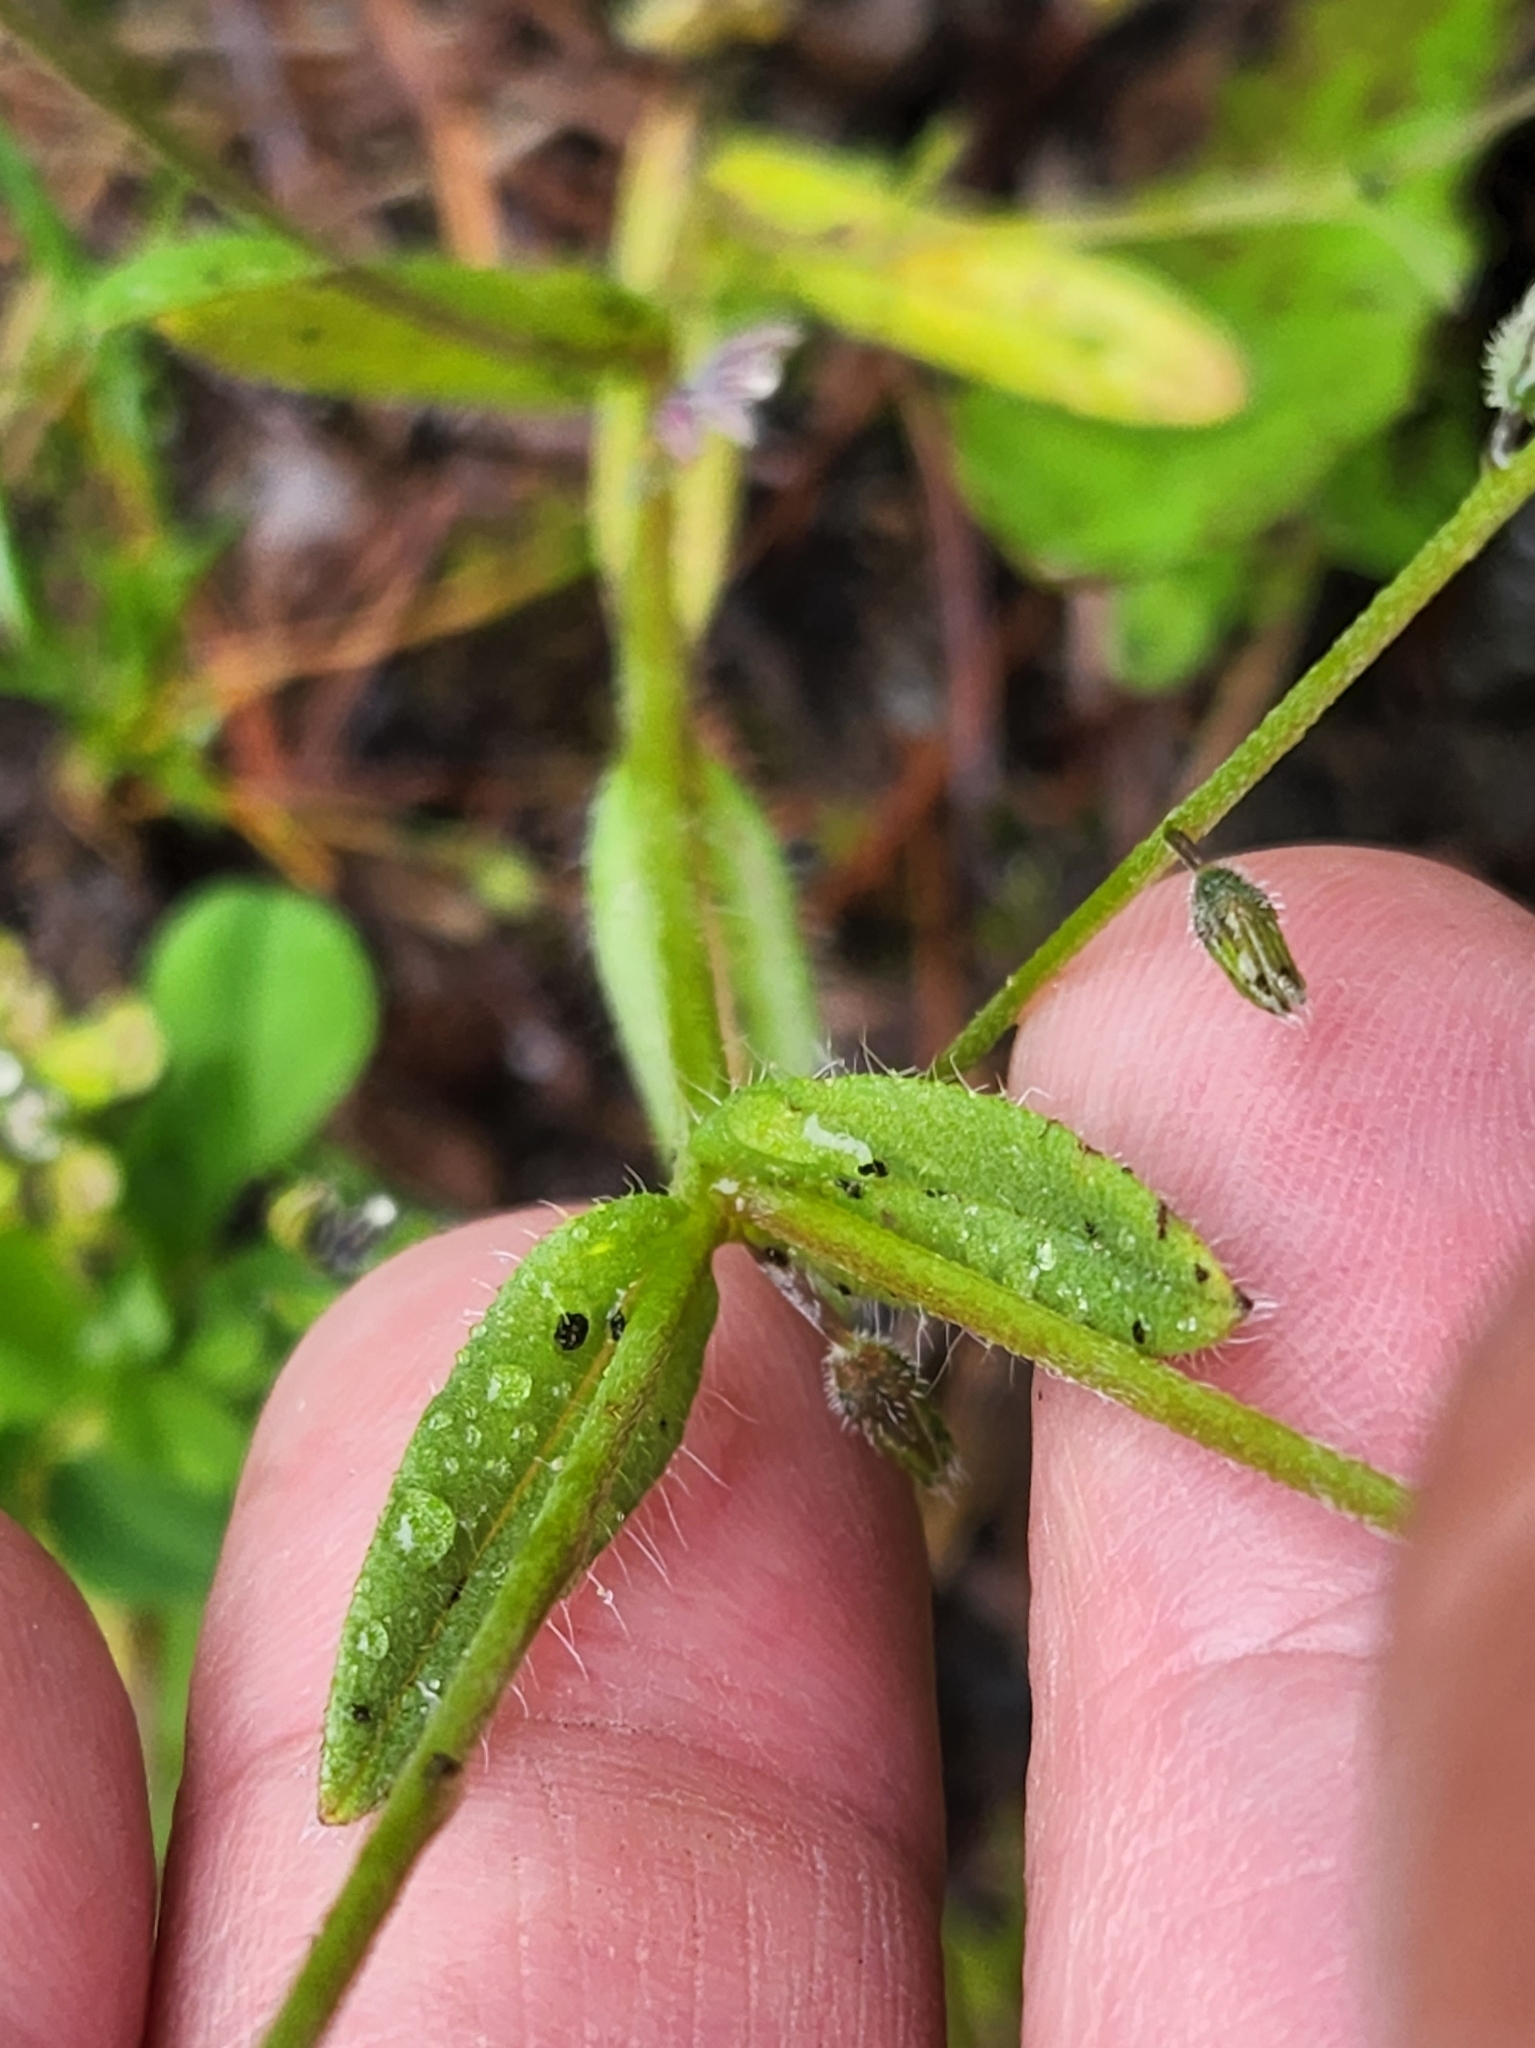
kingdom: Plantae
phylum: Tracheophyta
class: Magnoliopsida
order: Boraginales
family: Boraginaceae
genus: Myosotis
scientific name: Myosotis discolor
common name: Changing forget-me-not
